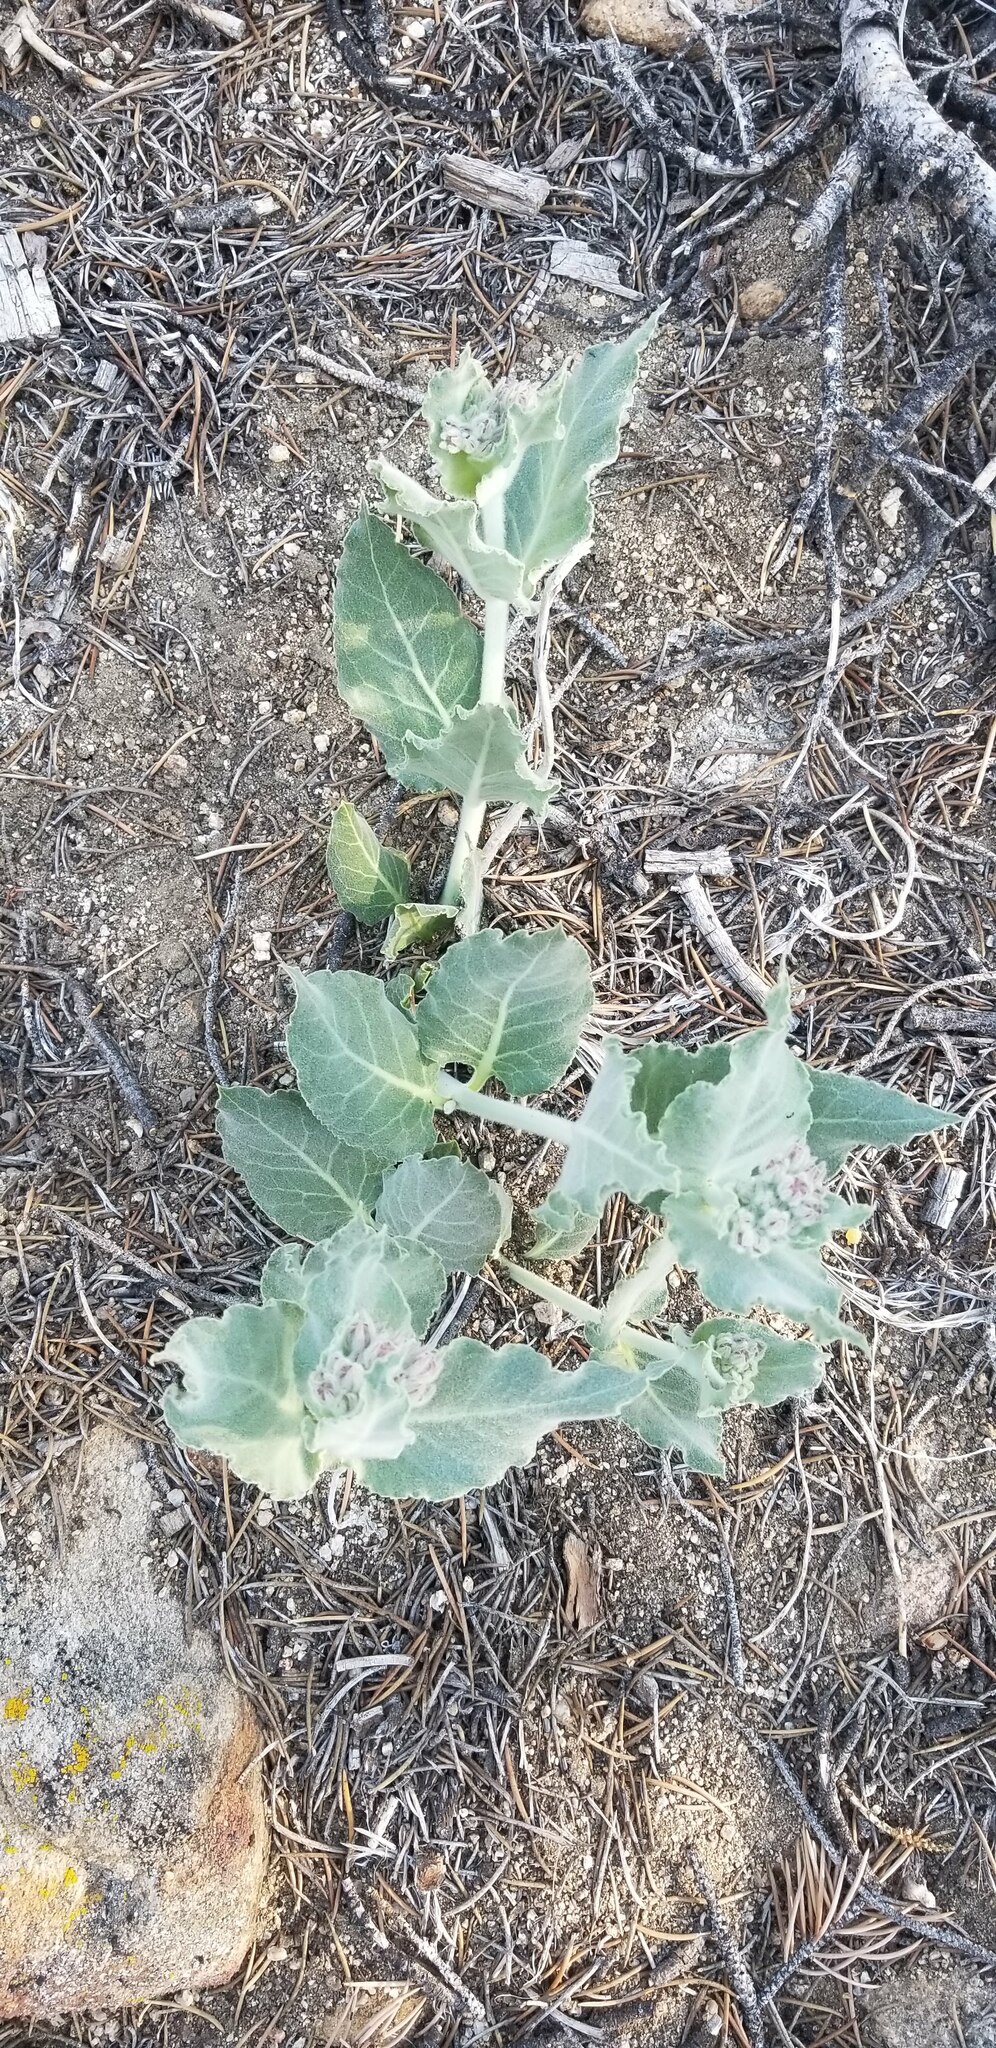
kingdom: Plantae
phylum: Tracheophyta
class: Magnoliopsida
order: Gentianales
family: Apocynaceae
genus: Asclepias
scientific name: Asclepias californica
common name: California milkweed
